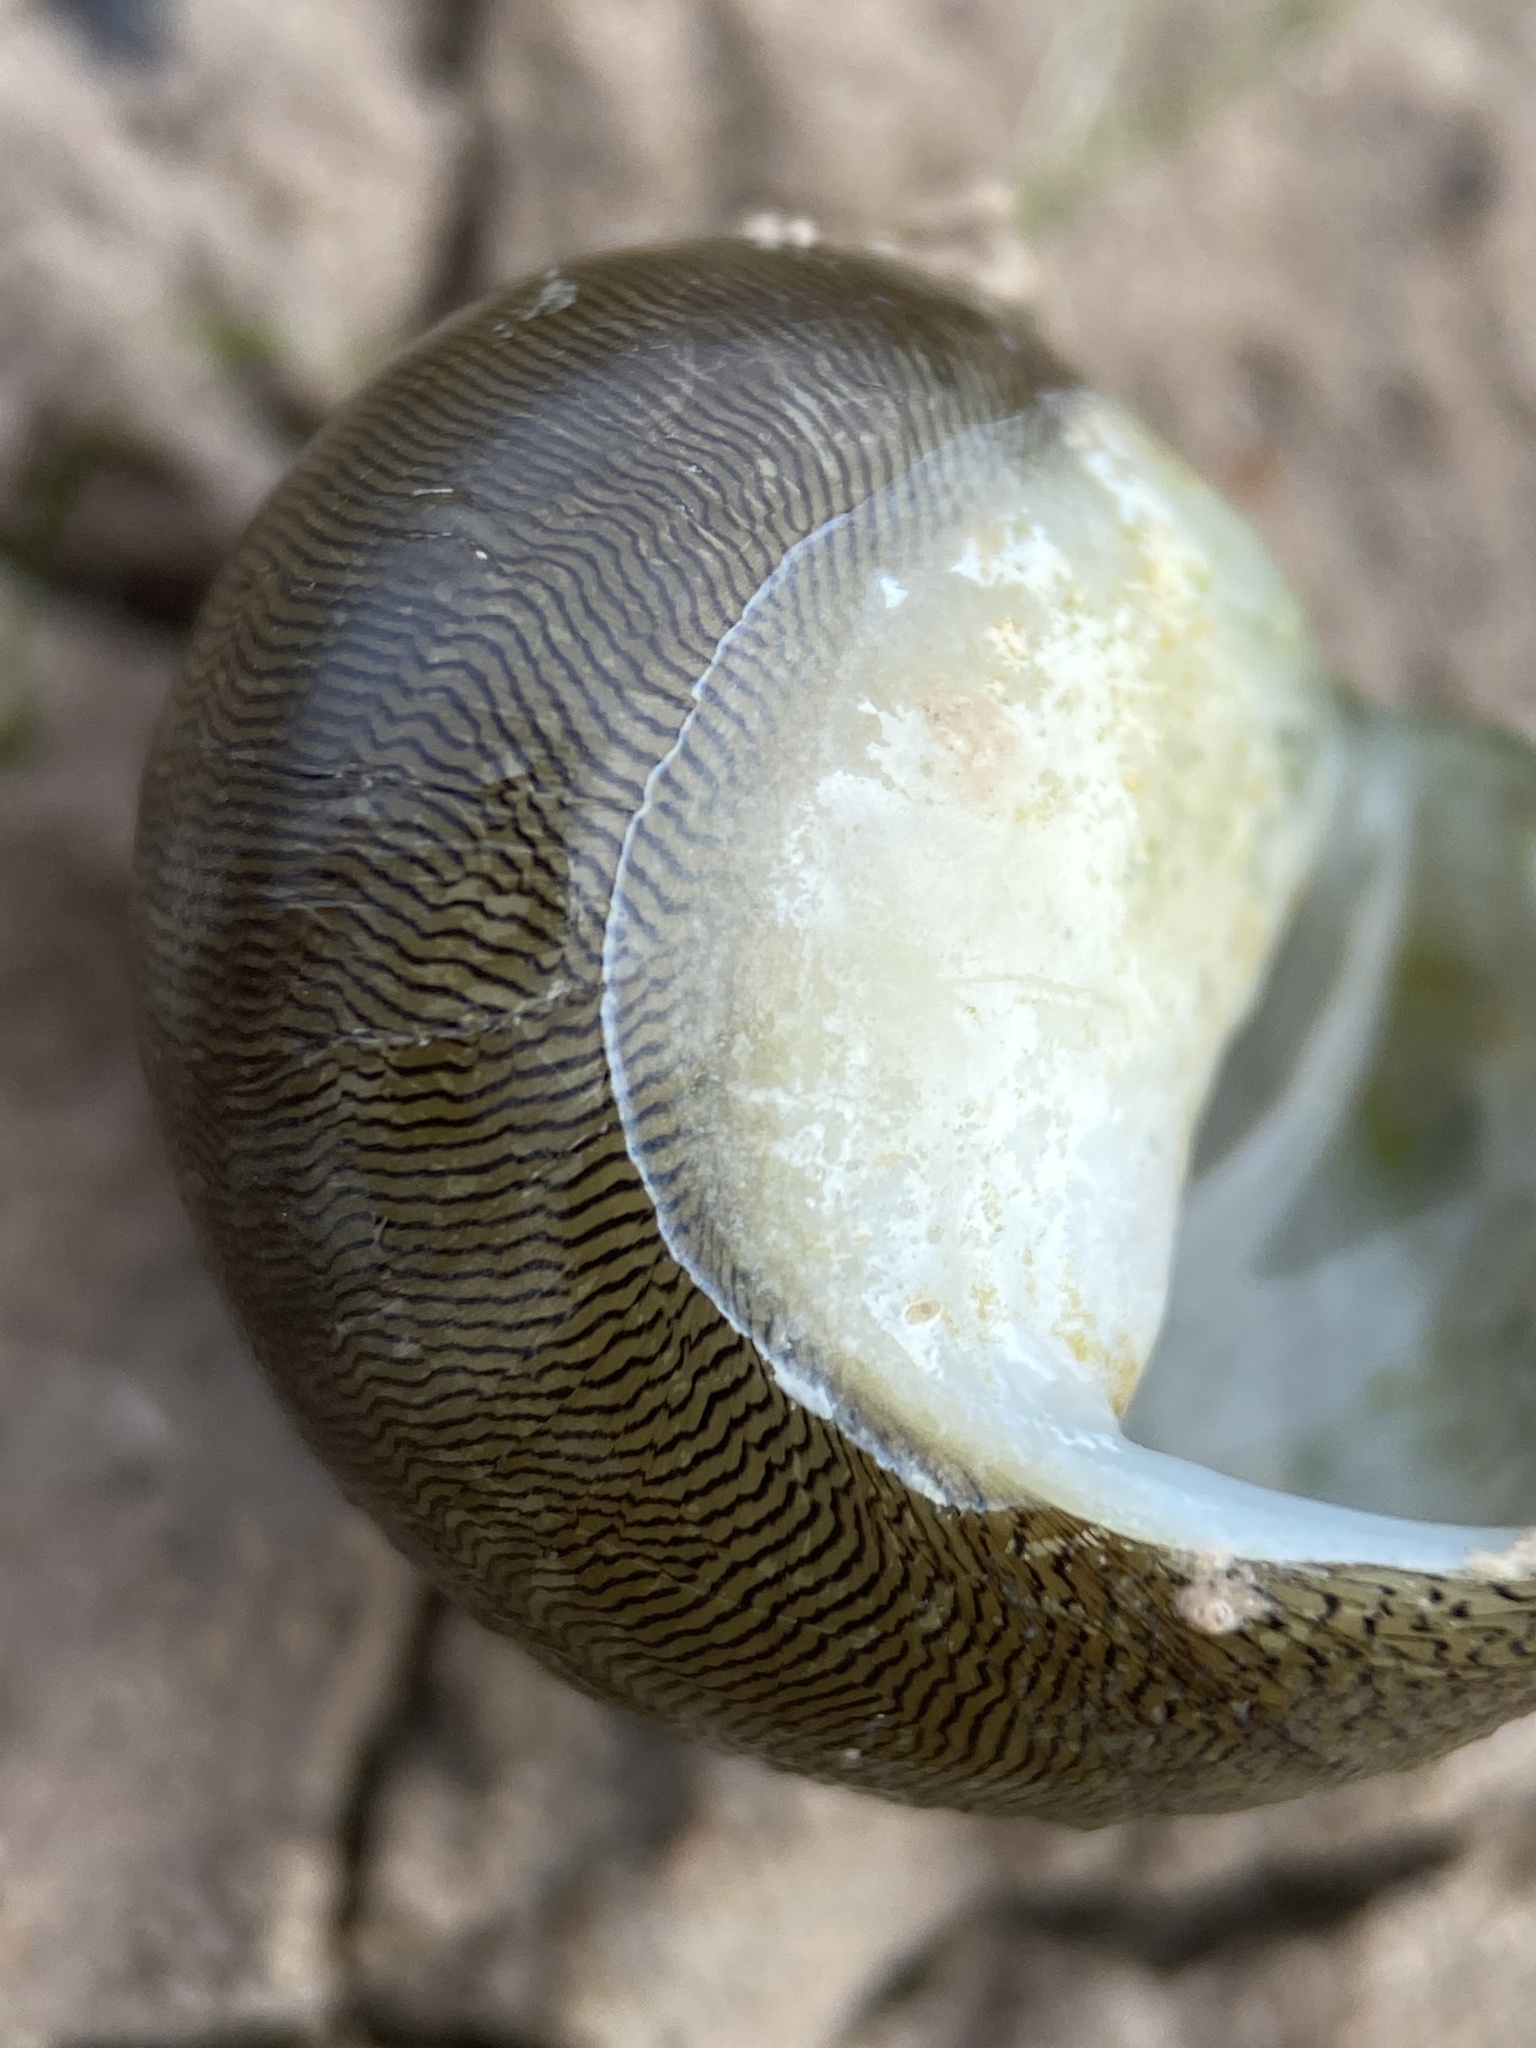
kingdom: Animalia
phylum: Mollusca
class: Gastropoda
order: Cycloneritida
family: Neritidae
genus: Vitta
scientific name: Vitta usnea
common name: Olive nerite
